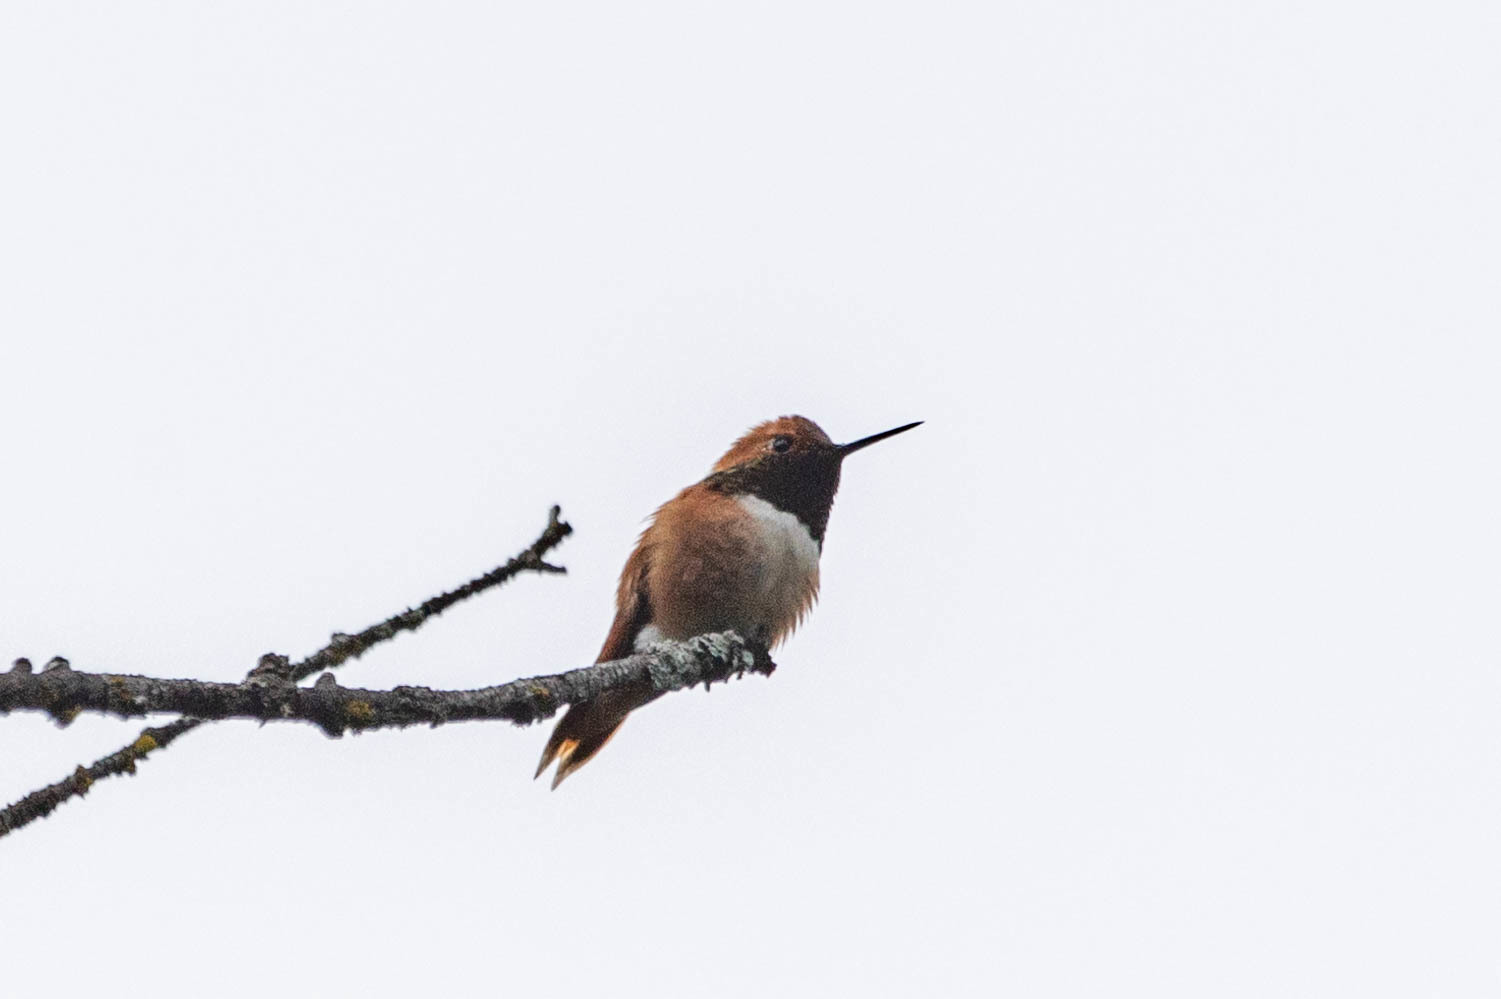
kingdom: Animalia
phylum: Chordata
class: Aves
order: Apodiformes
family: Trochilidae
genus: Selasphorus
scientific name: Selasphorus rufus
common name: Rufous hummingbird
